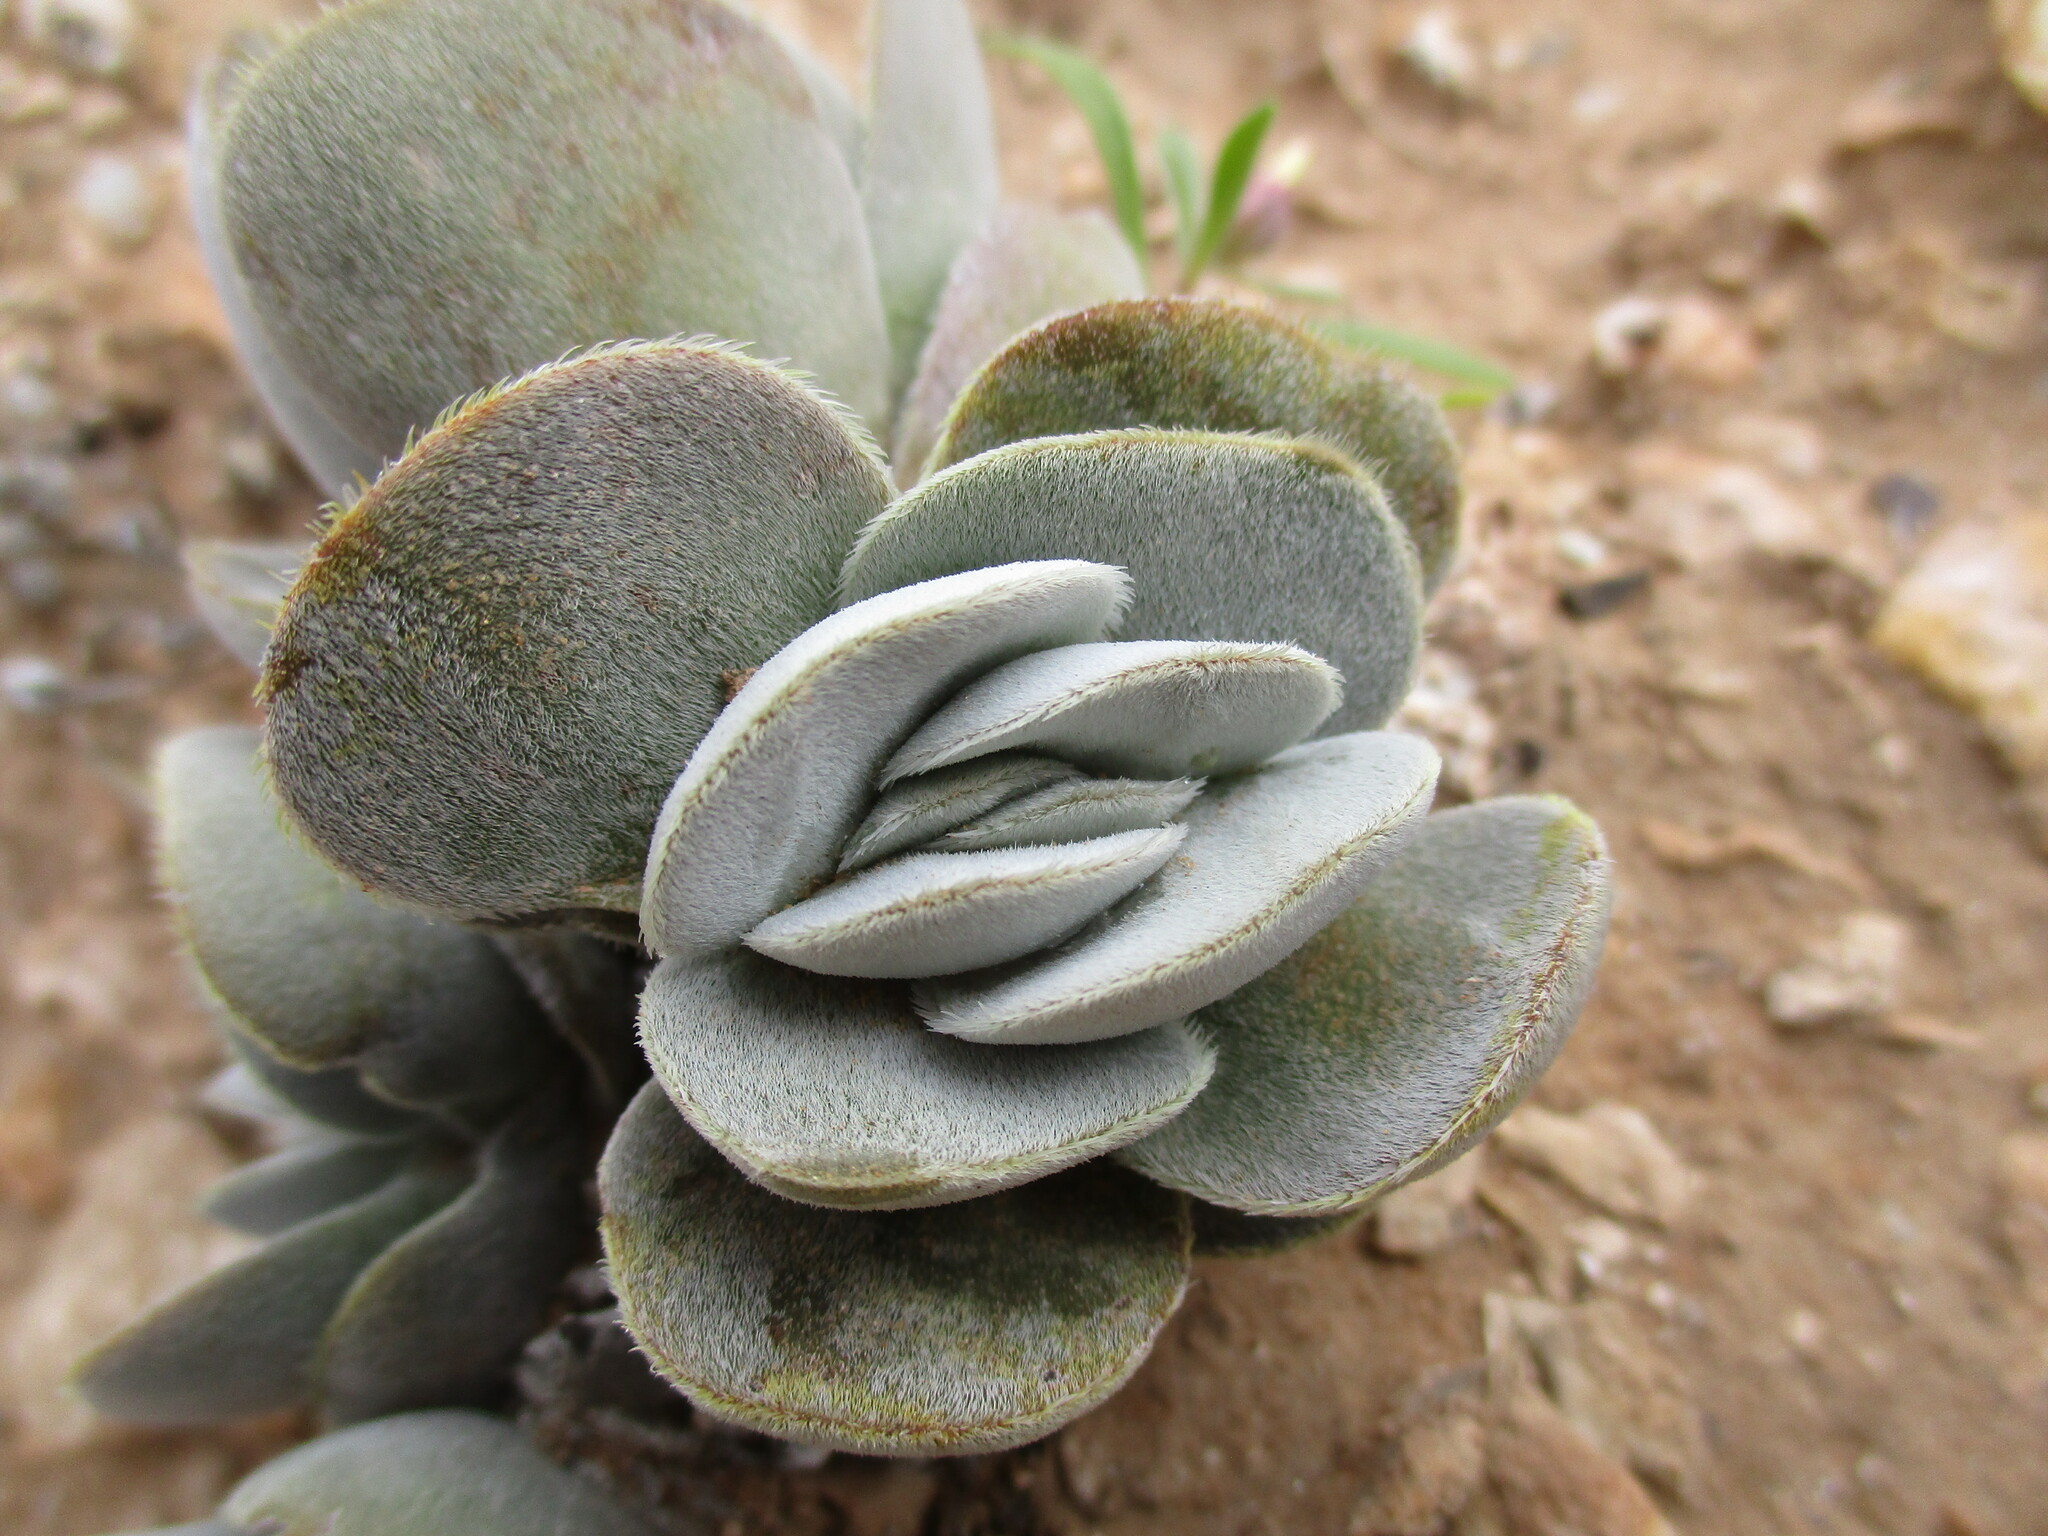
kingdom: Plantae
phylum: Tracheophyta
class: Magnoliopsida
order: Saxifragales
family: Crassulaceae
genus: Crassula
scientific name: Crassula tomentosa
